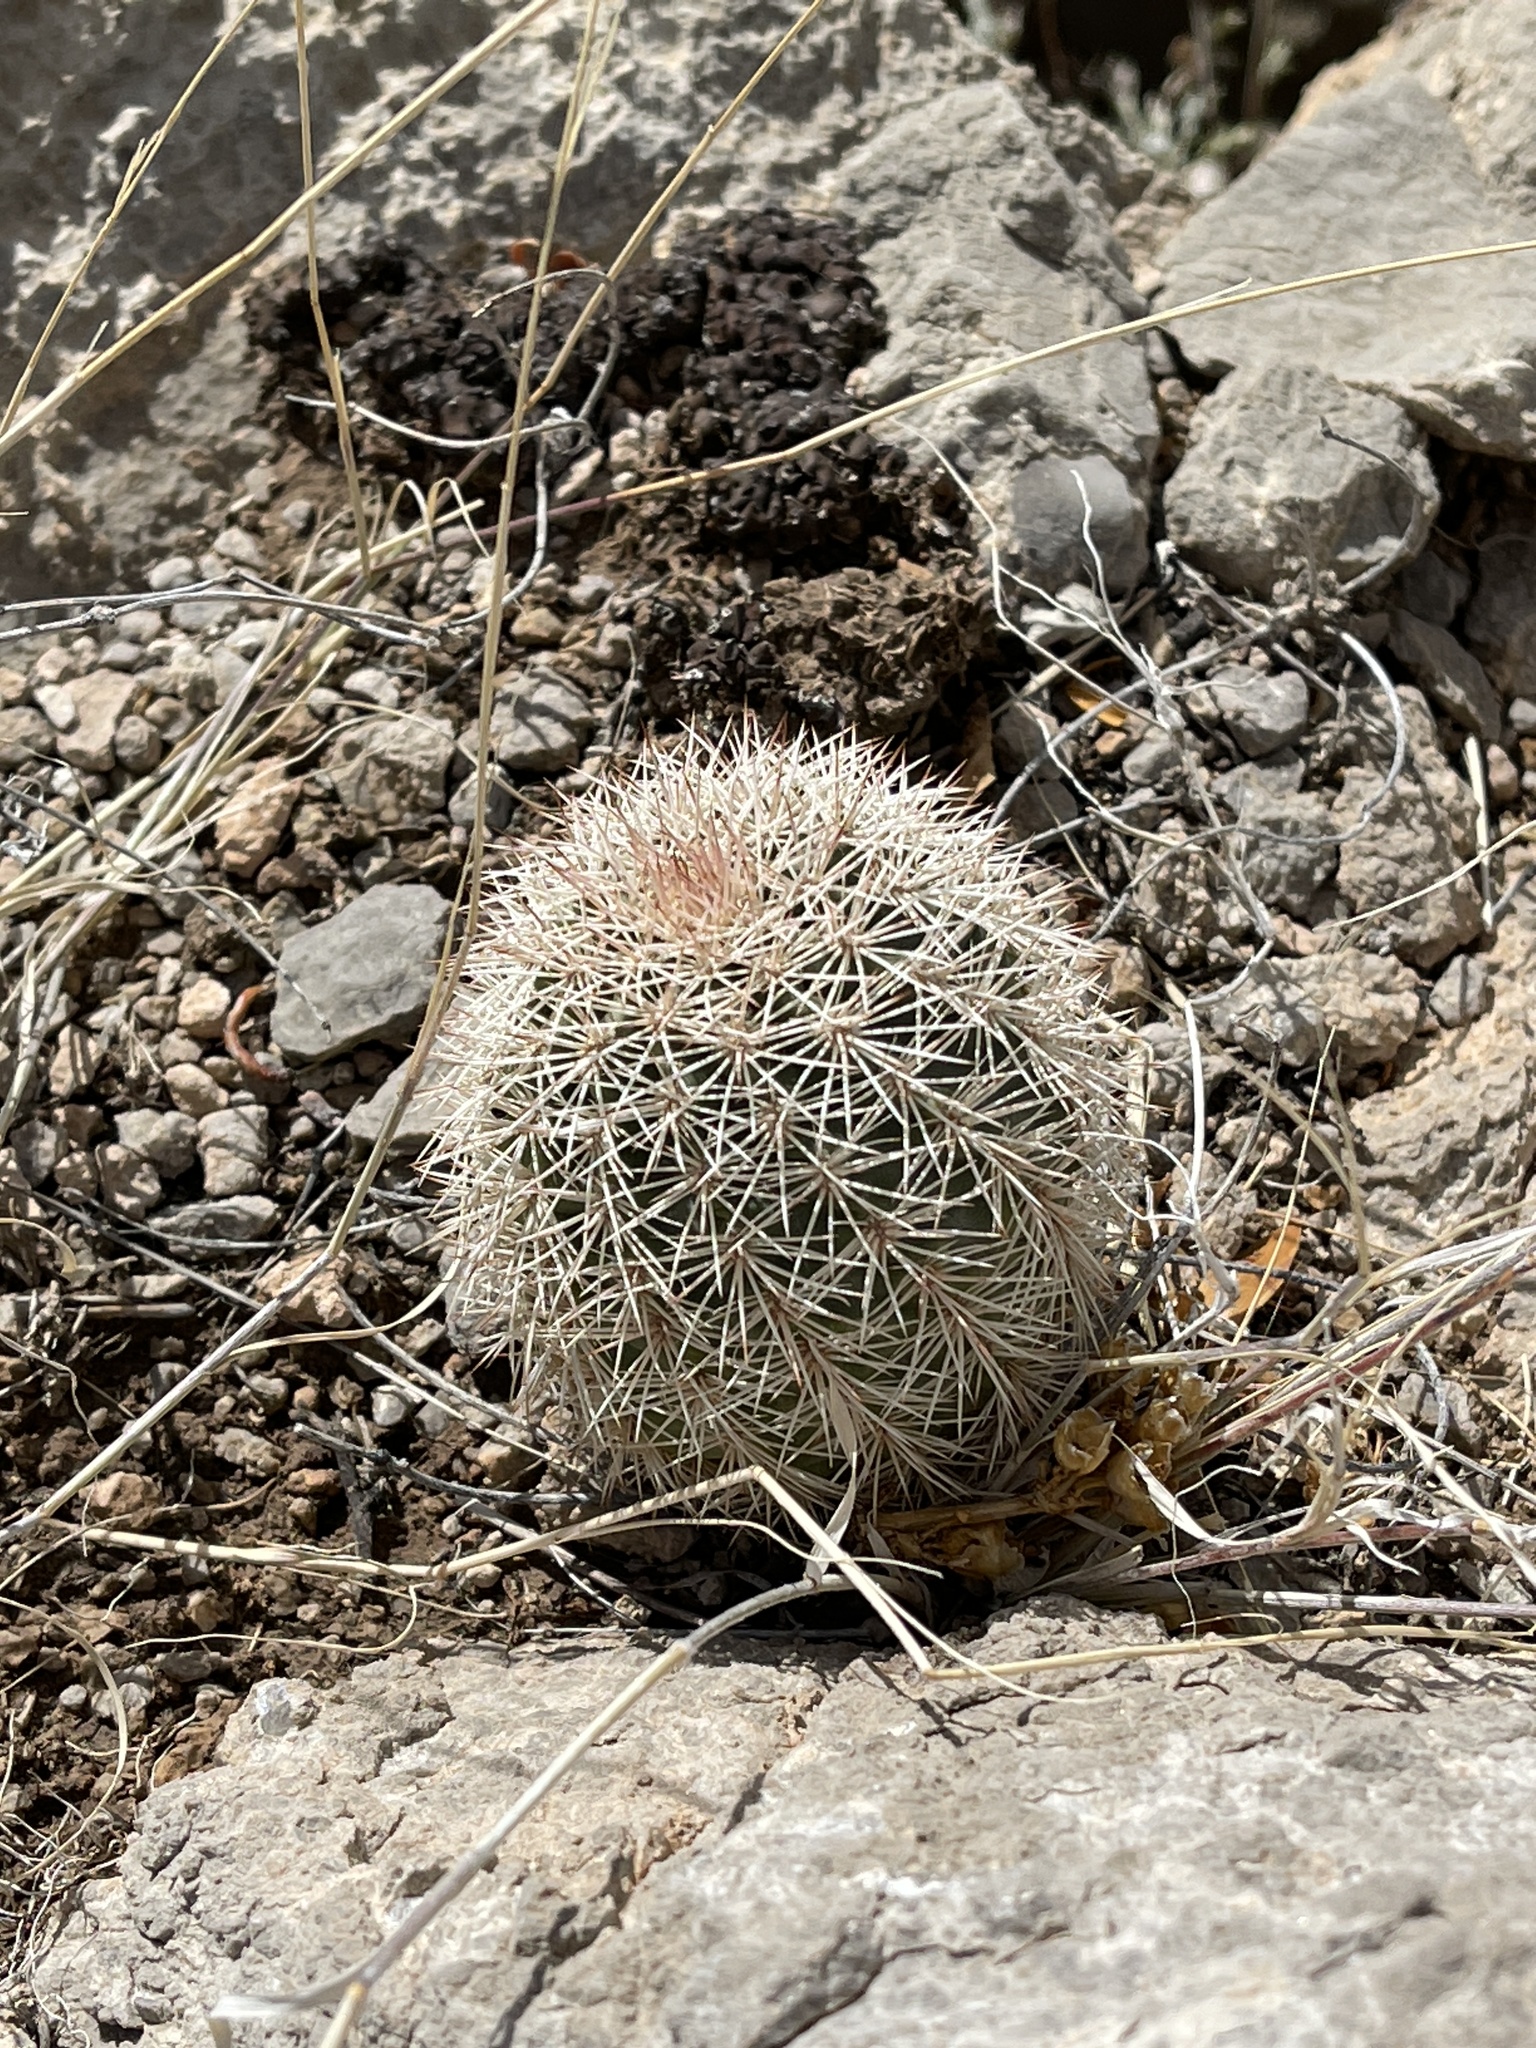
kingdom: Plantae
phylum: Tracheophyta
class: Magnoliopsida
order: Caryophyllales
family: Cactaceae
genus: Echinocereus
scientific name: Echinocereus dasyacanthus
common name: Spiny hedgehog cactus
